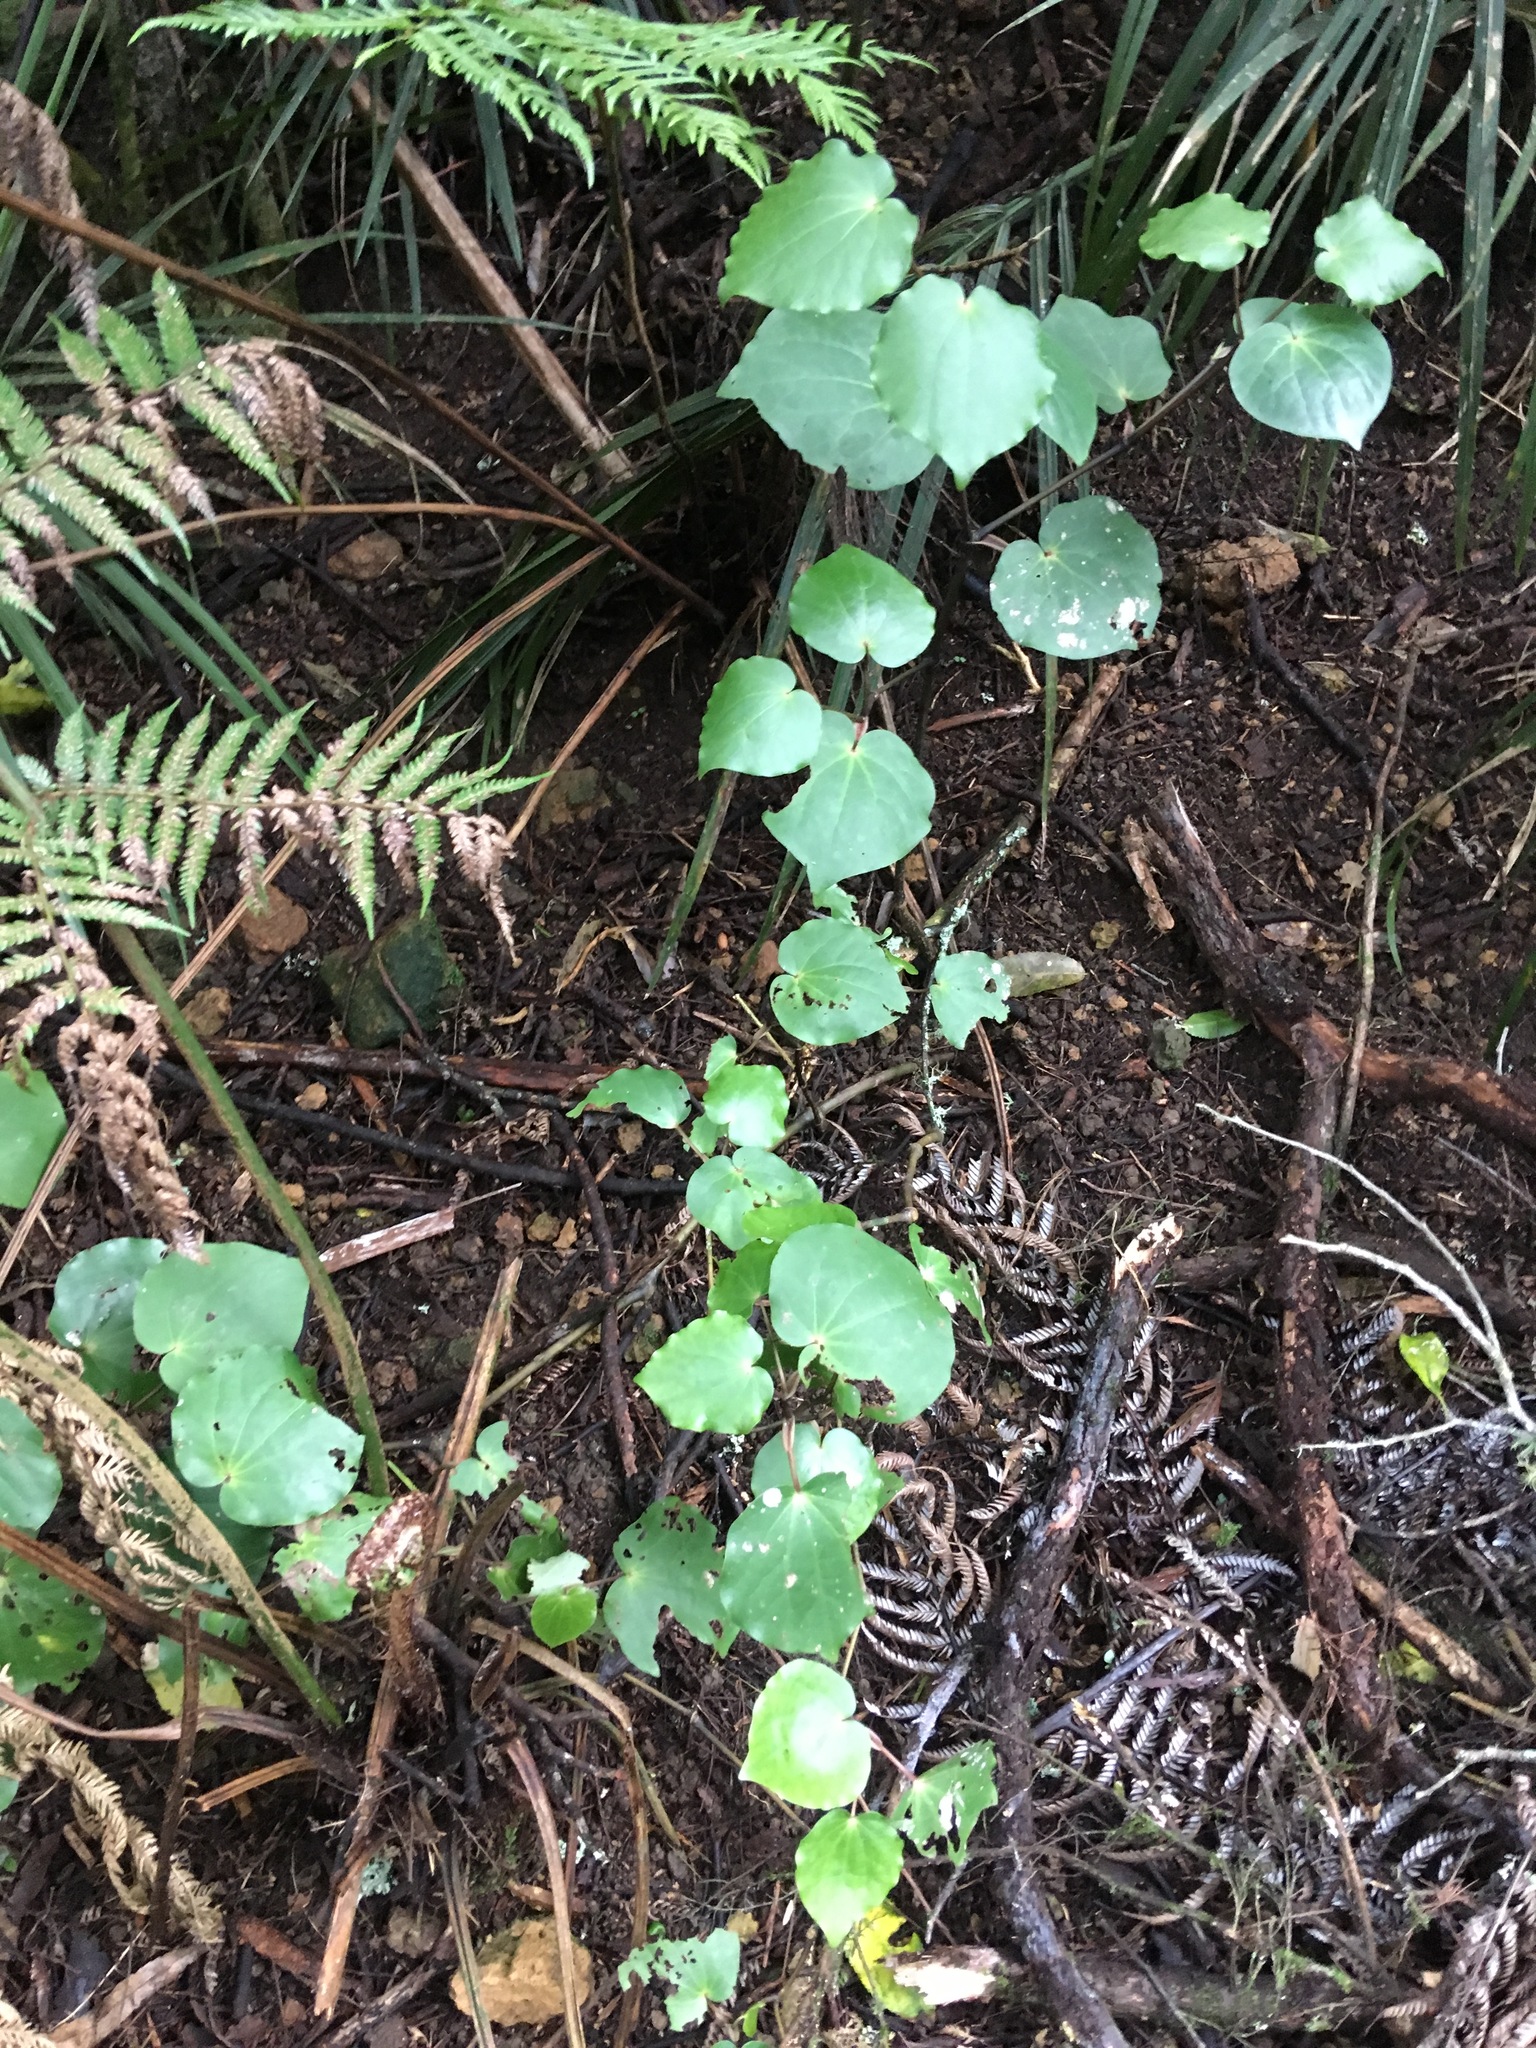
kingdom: Plantae
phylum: Tracheophyta
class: Magnoliopsida
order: Piperales
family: Piperaceae
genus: Macropiper
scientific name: Macropiper excelsum
